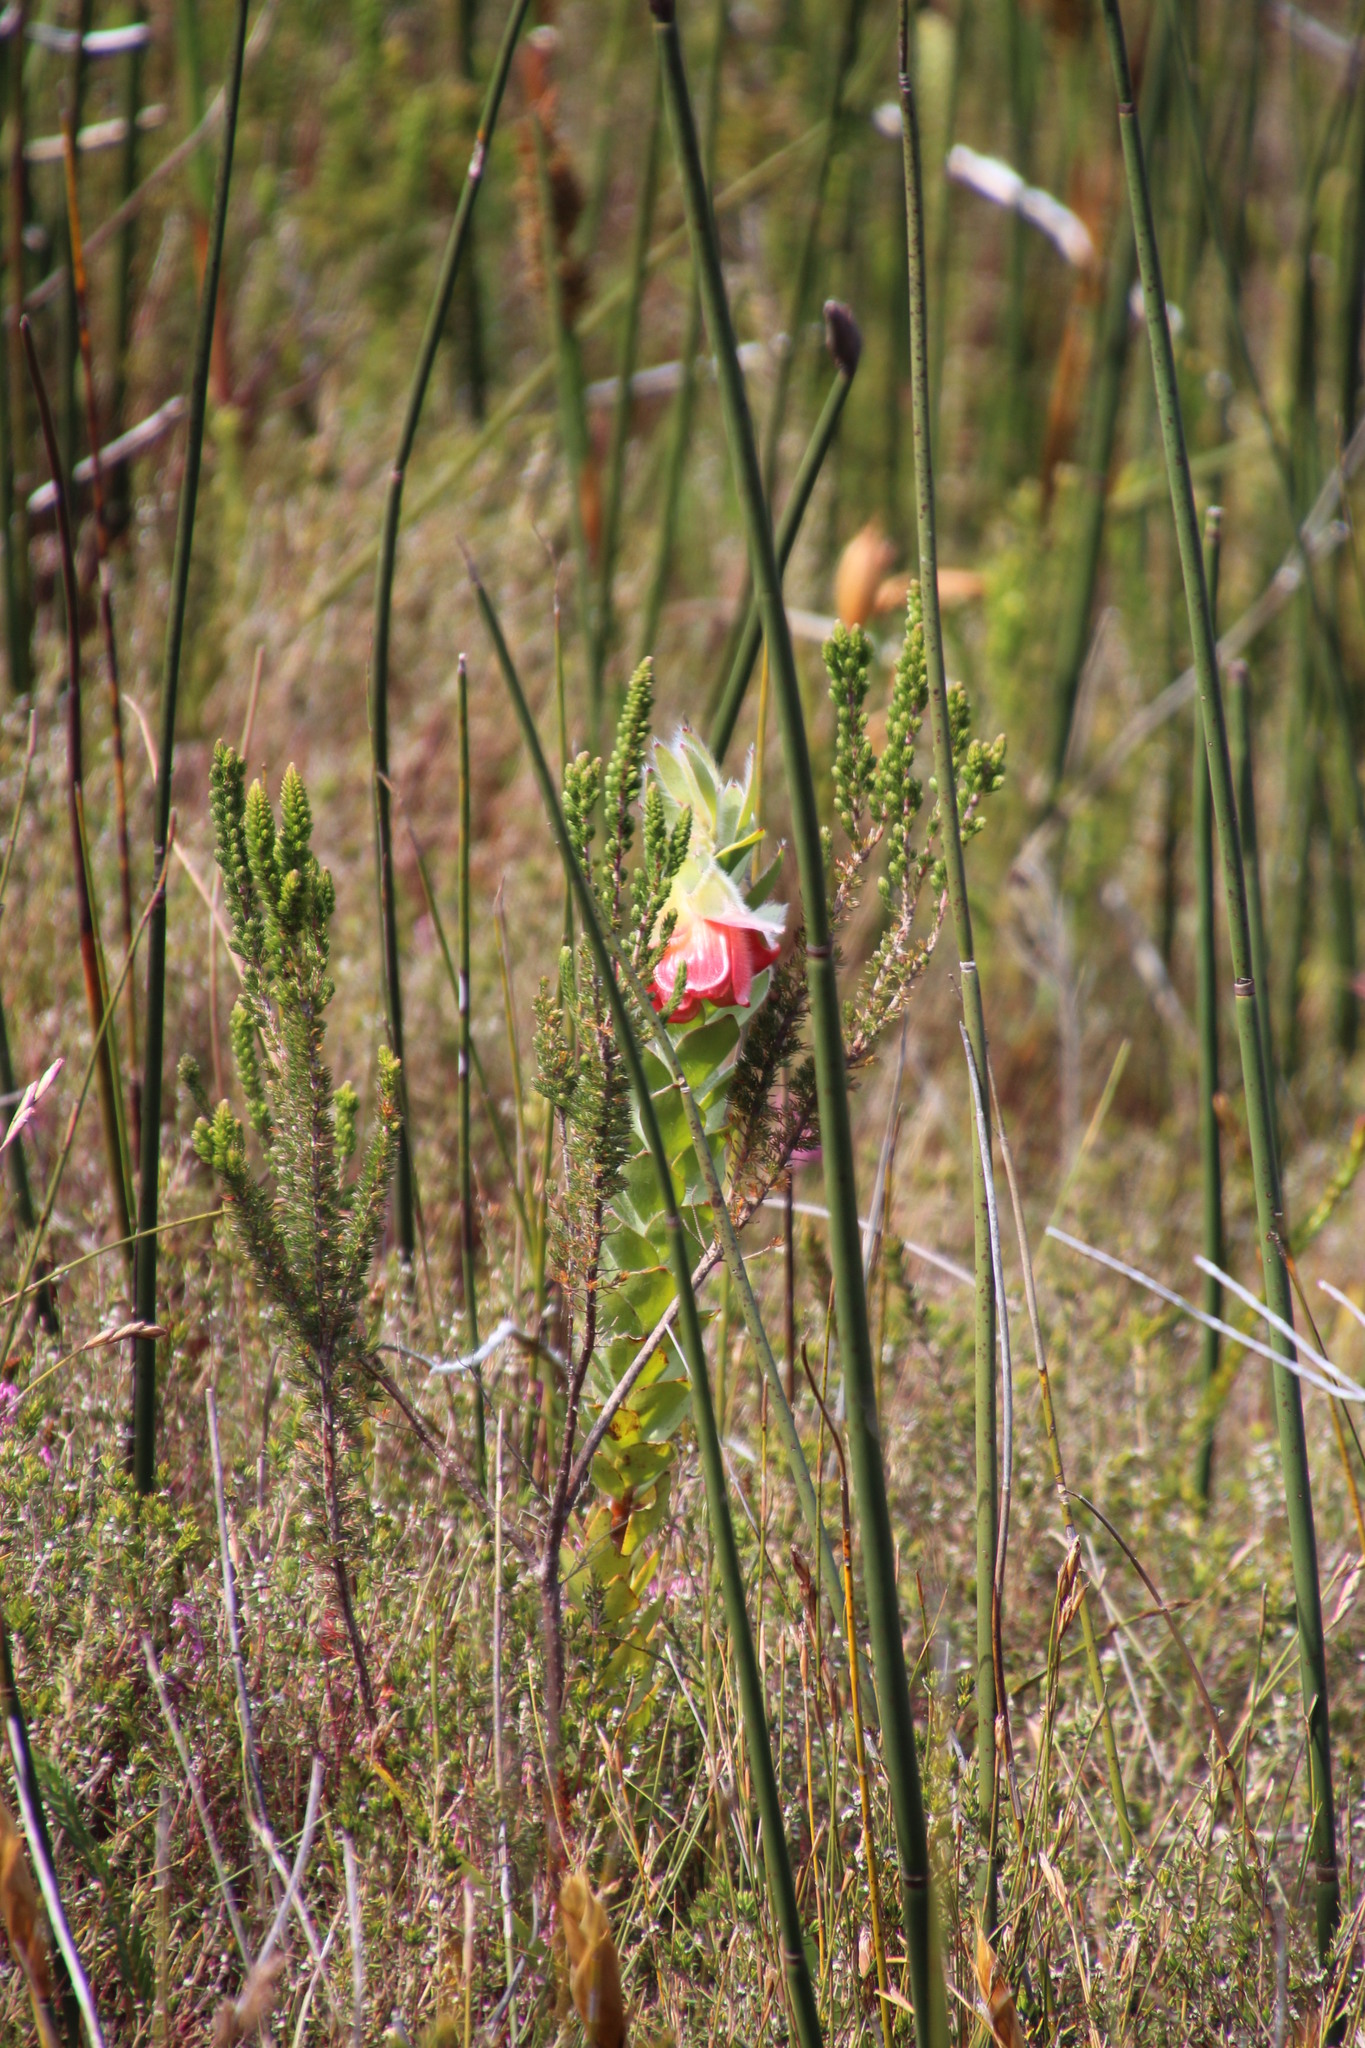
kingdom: Plantae
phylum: Tracheophyta
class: Magnoliopsida
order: Proteales
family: Proteaceae
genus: Orothamnus
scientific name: Orothamnus zeyheri
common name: Marsh rose
